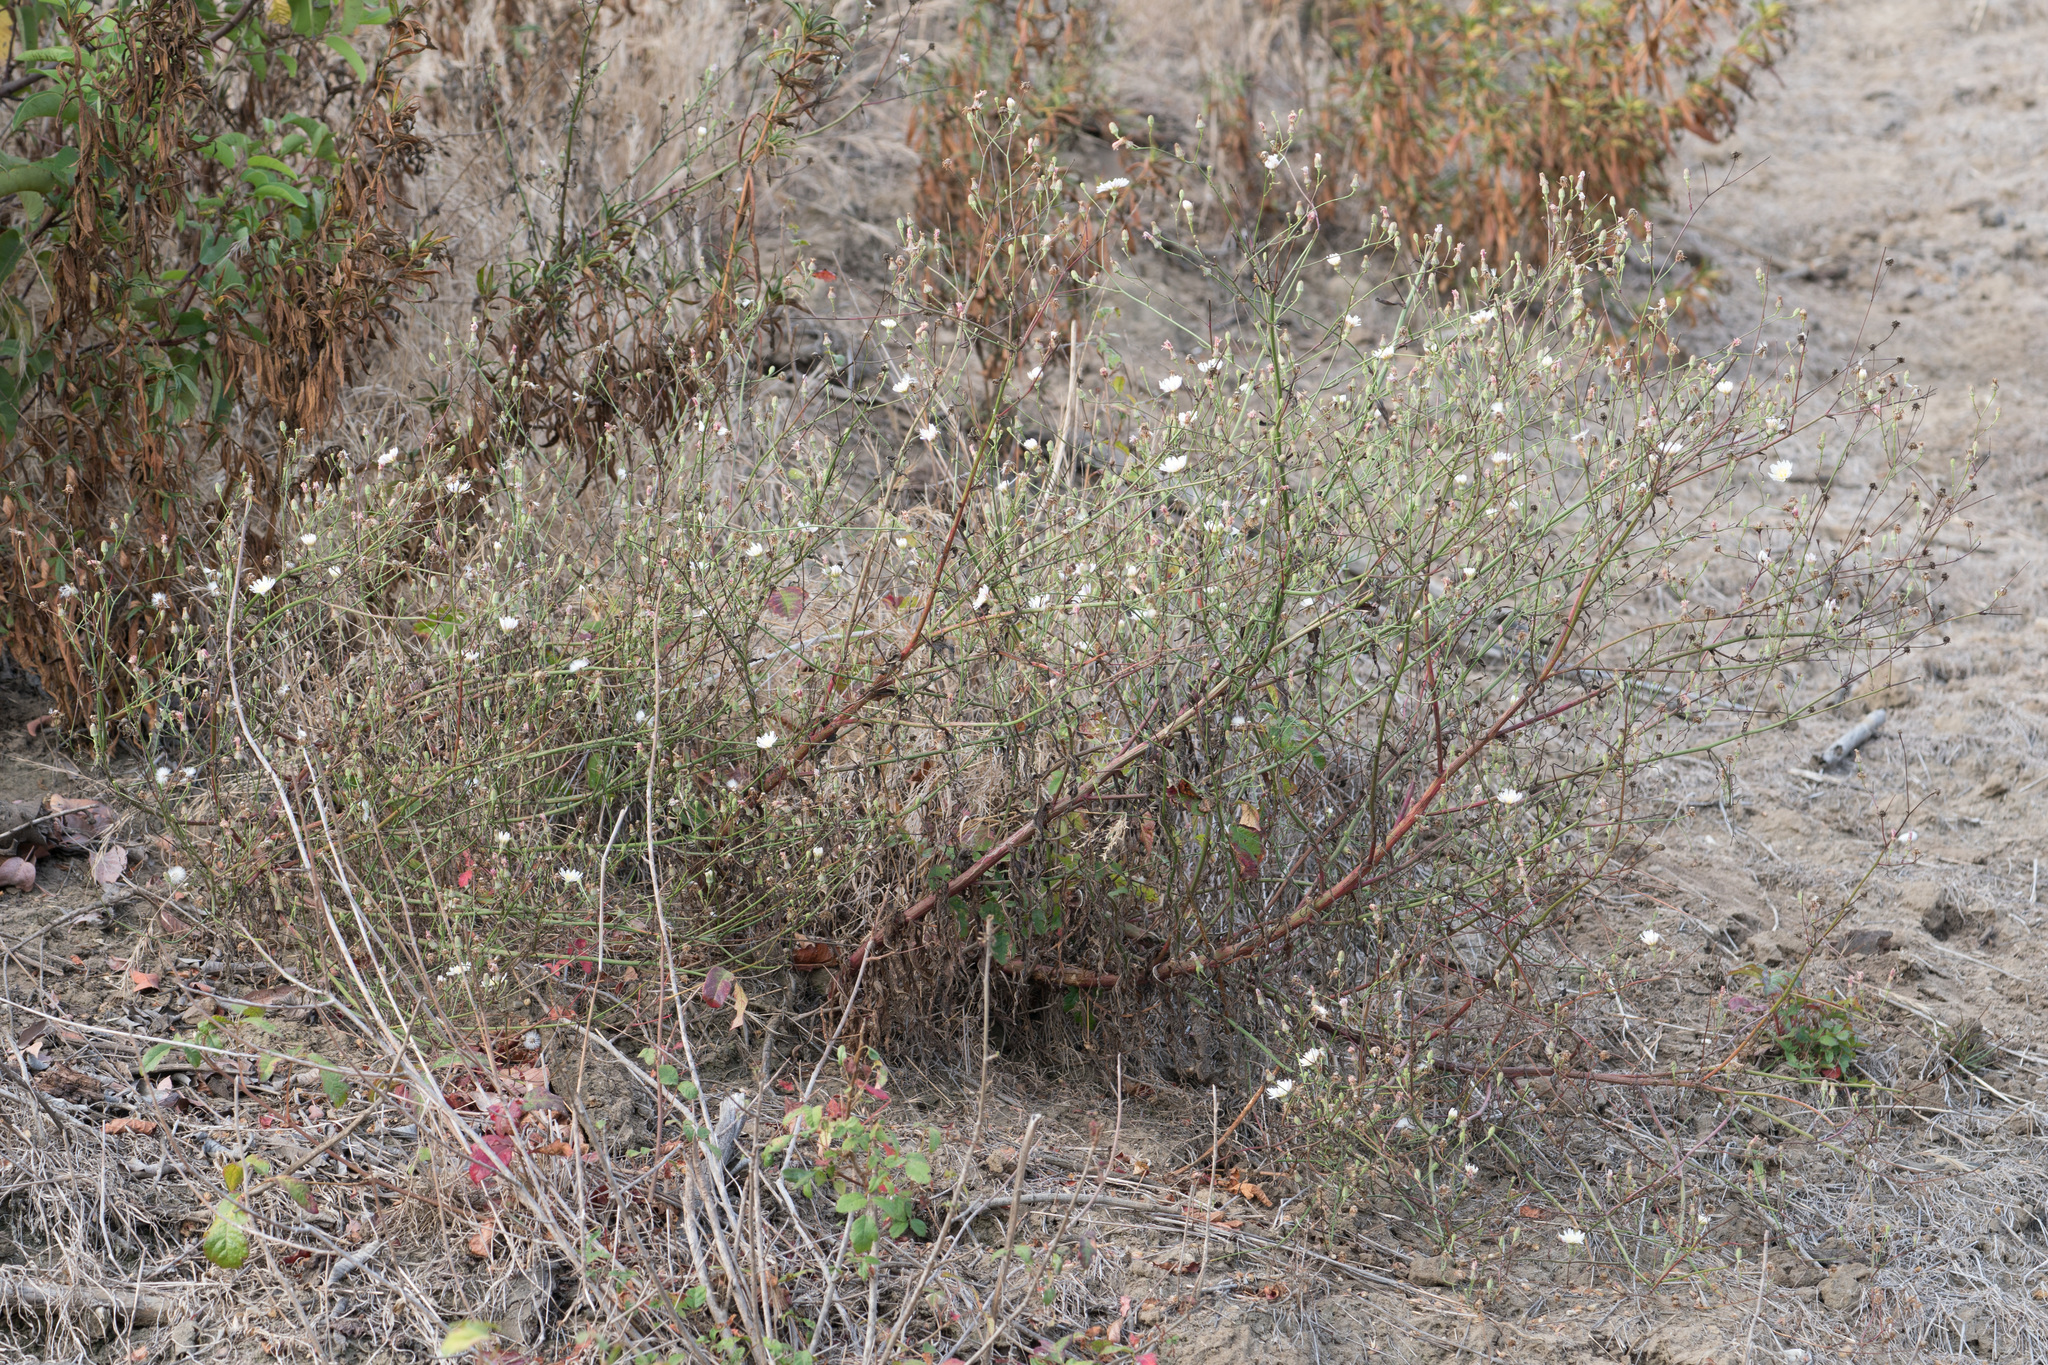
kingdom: Plantae
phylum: Tracheophyta
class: Magnoliopsida
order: Asterales
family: Asteraceae
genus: Malacothrix
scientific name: Malacothrix saxatilis
